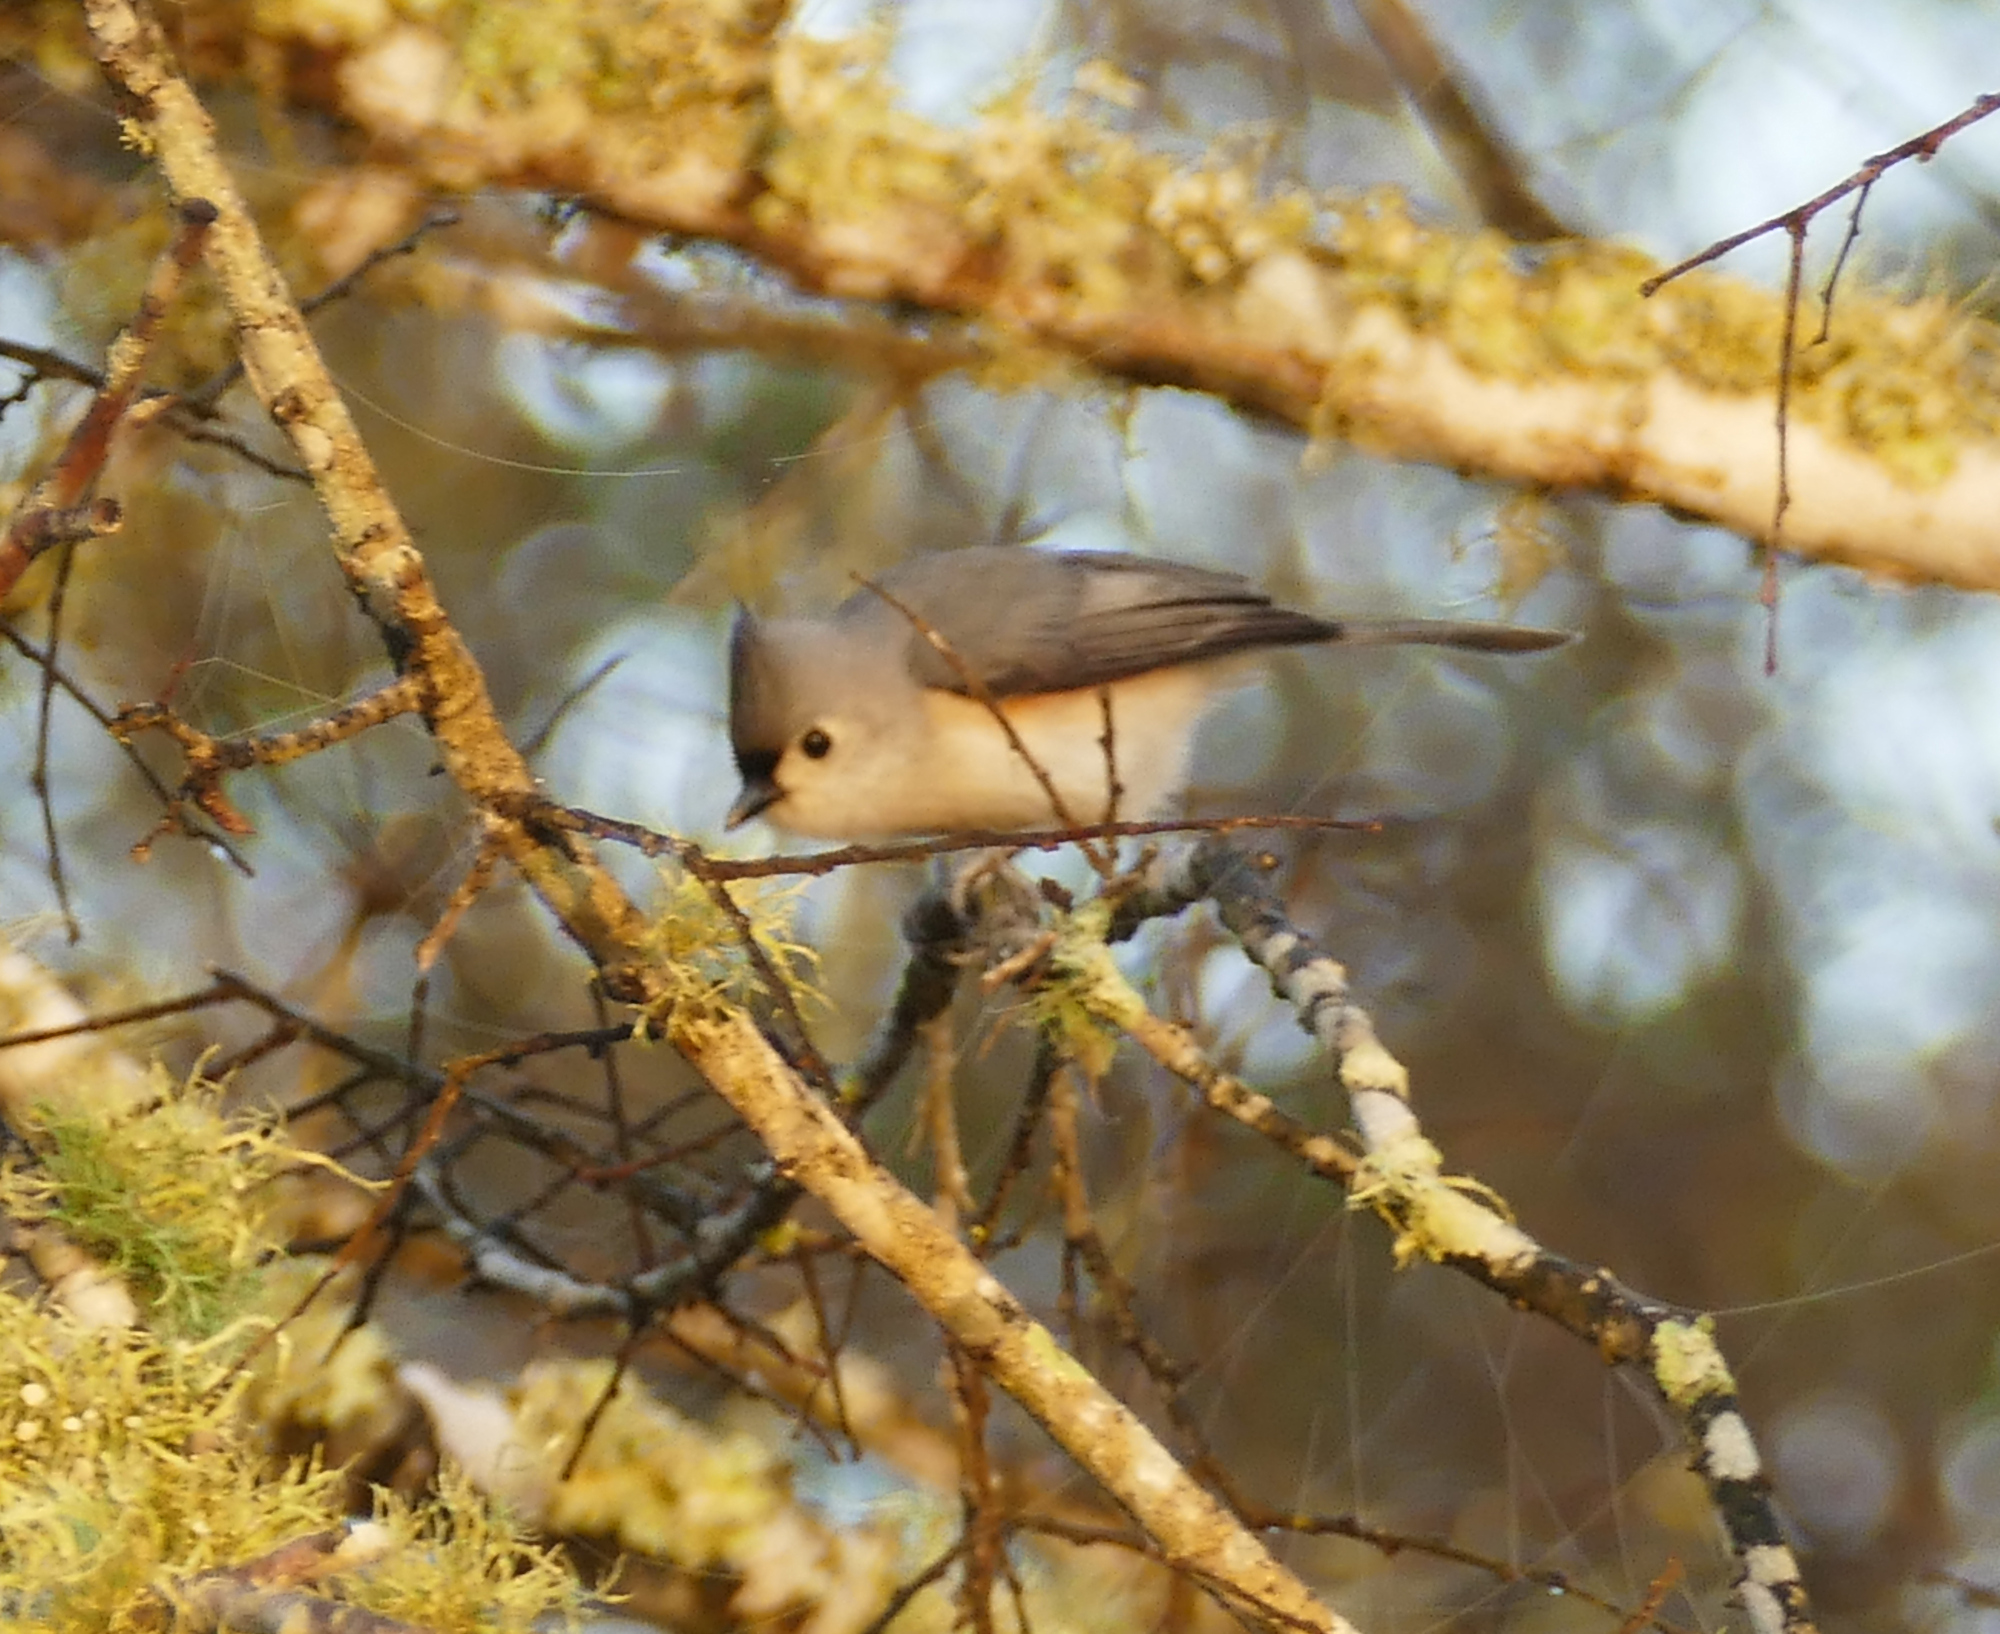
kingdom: Animalia
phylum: Chordata
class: Aves
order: Passeriformes
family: Paridae
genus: Baeolophus
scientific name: Baeolophus bicolor
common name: Tufted titmouse
